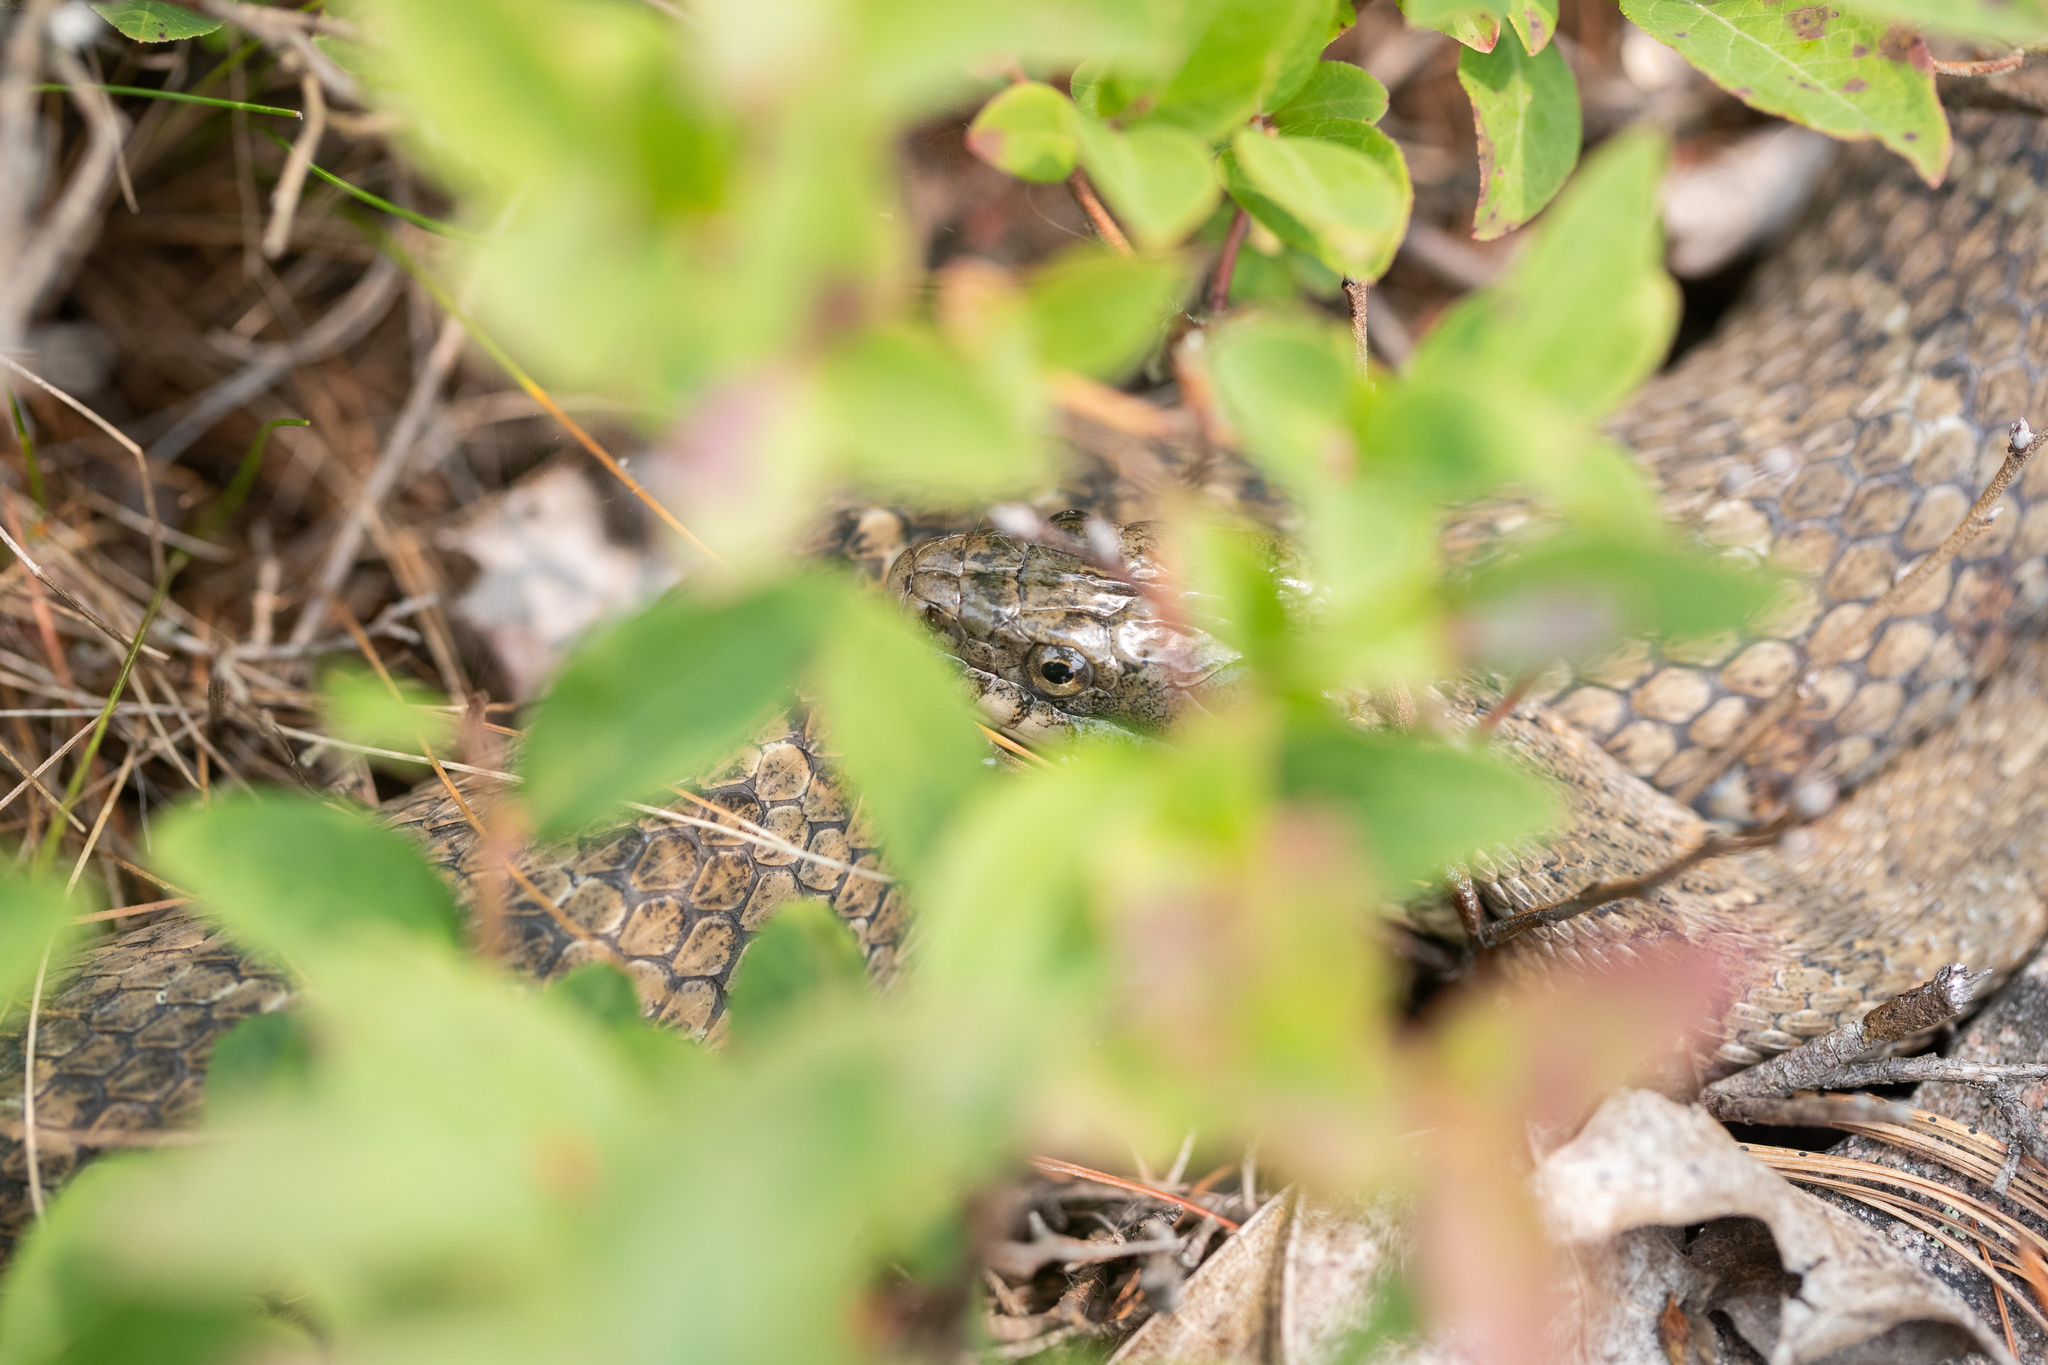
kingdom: Animalia
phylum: Chordata
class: Squamata
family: Colubridae
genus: Nerodia
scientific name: Nerodia sipedon
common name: Northern water snake
